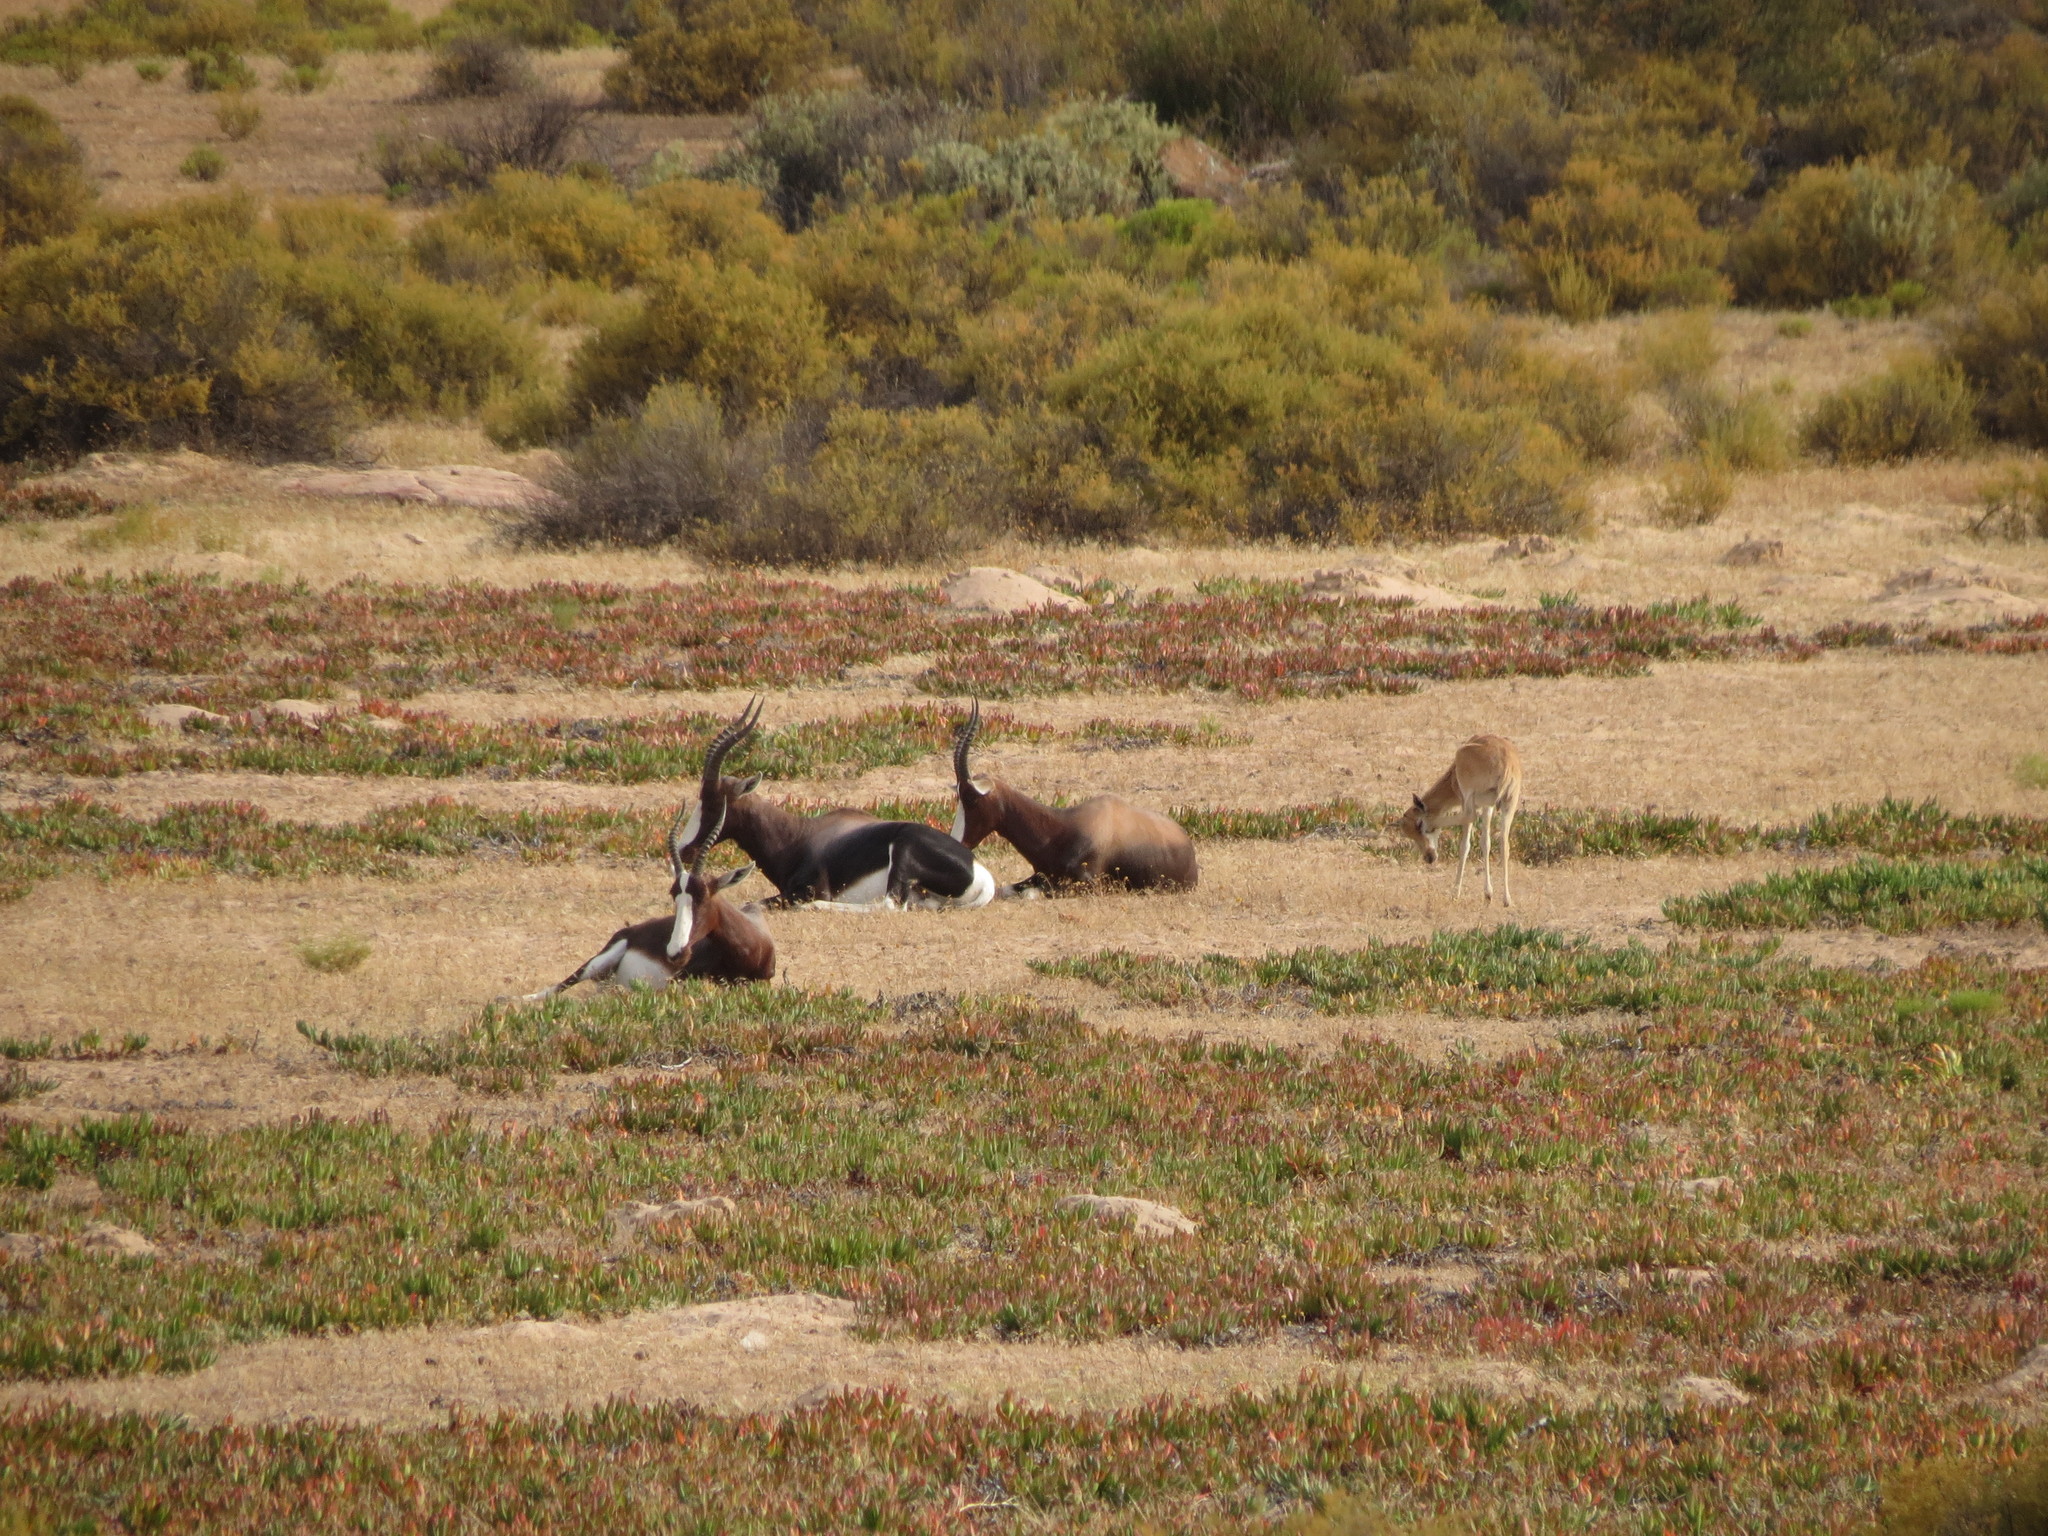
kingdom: Animalia
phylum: Chordata
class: Mammalia
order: Artiodactyla
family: Bovidae
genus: Damaliscus
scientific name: Damaliscus pygargus
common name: Bontebok
